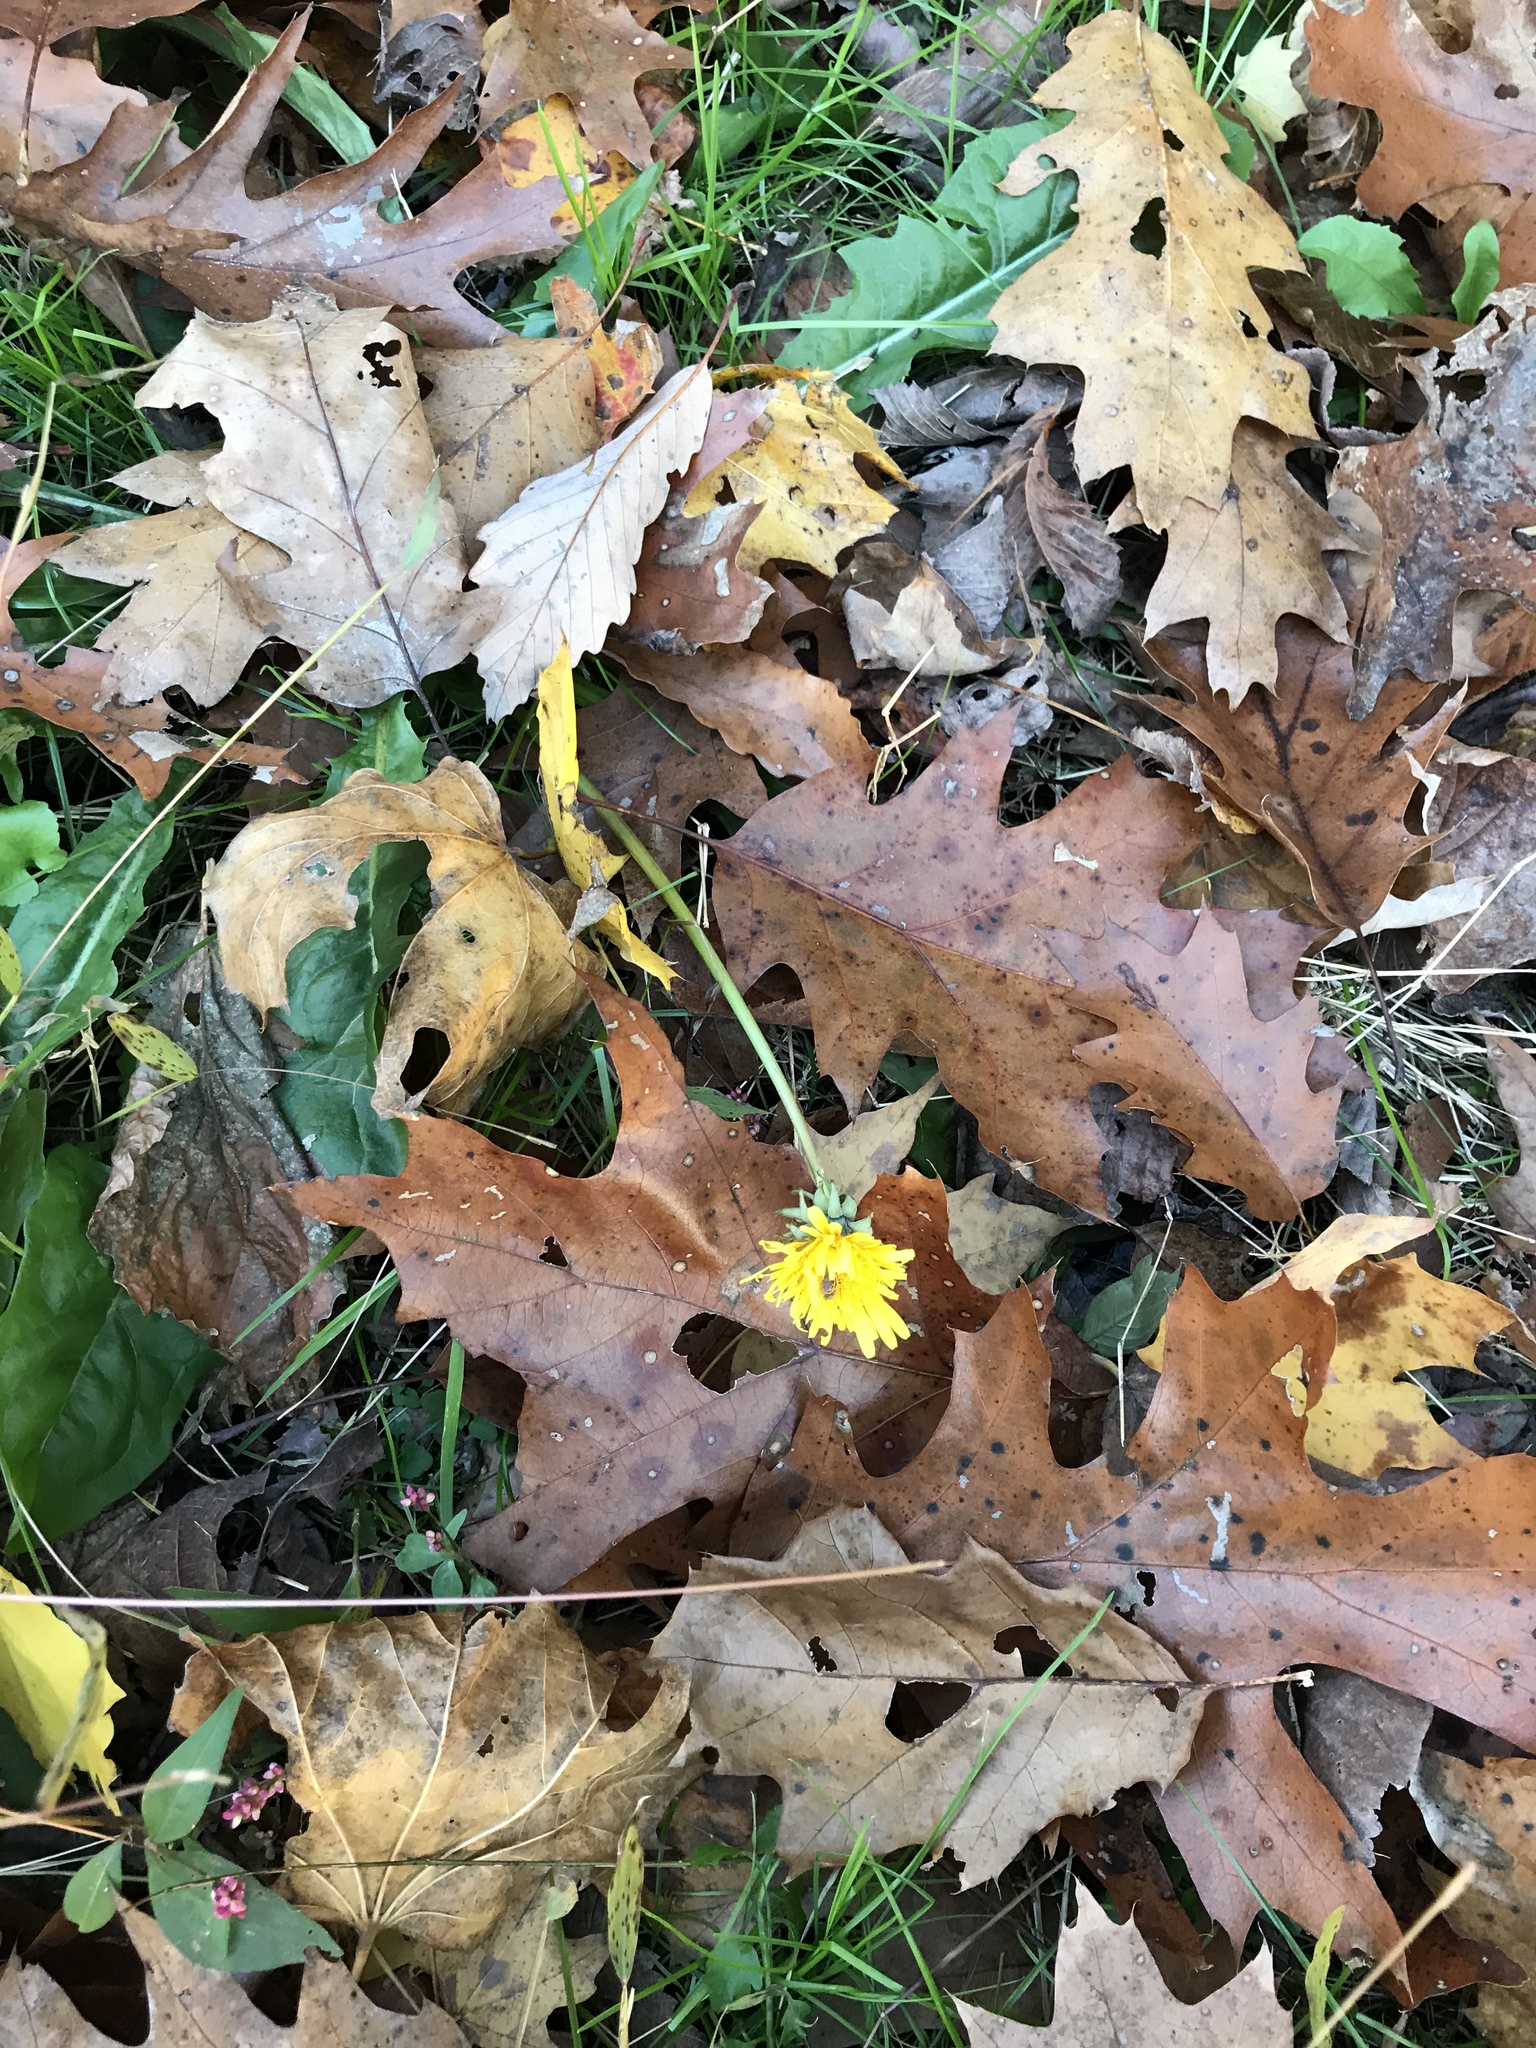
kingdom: Plantae
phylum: Tracheophyta
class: Magnoliopsida
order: Asterales
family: Asteraceae
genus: Taraxacum
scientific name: Taraxacum officinale
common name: Common dandelion
